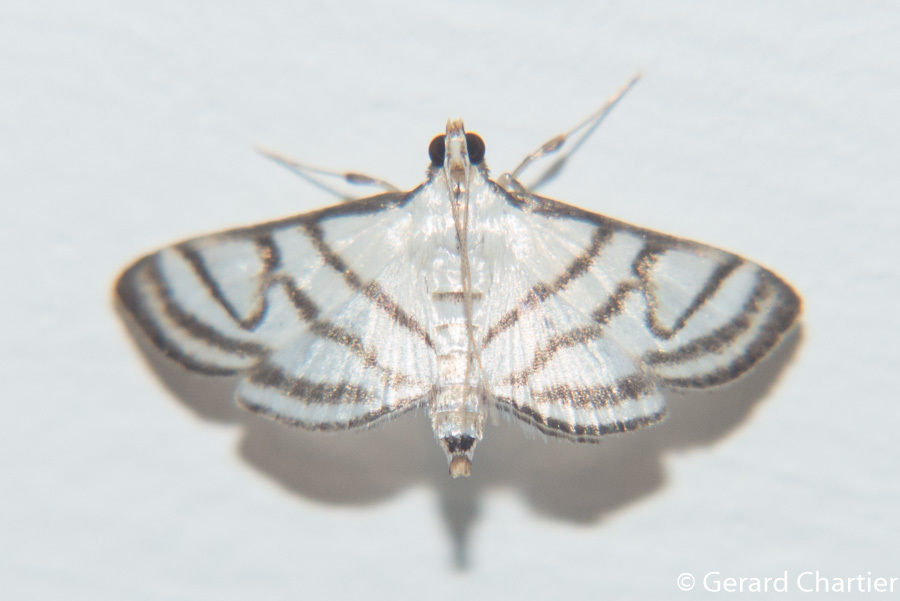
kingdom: Animalia
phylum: Arthropoda
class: Insecta
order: Lepidoptera
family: Crambidae
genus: Ravanoa
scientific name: Ravanoa xiphialis
